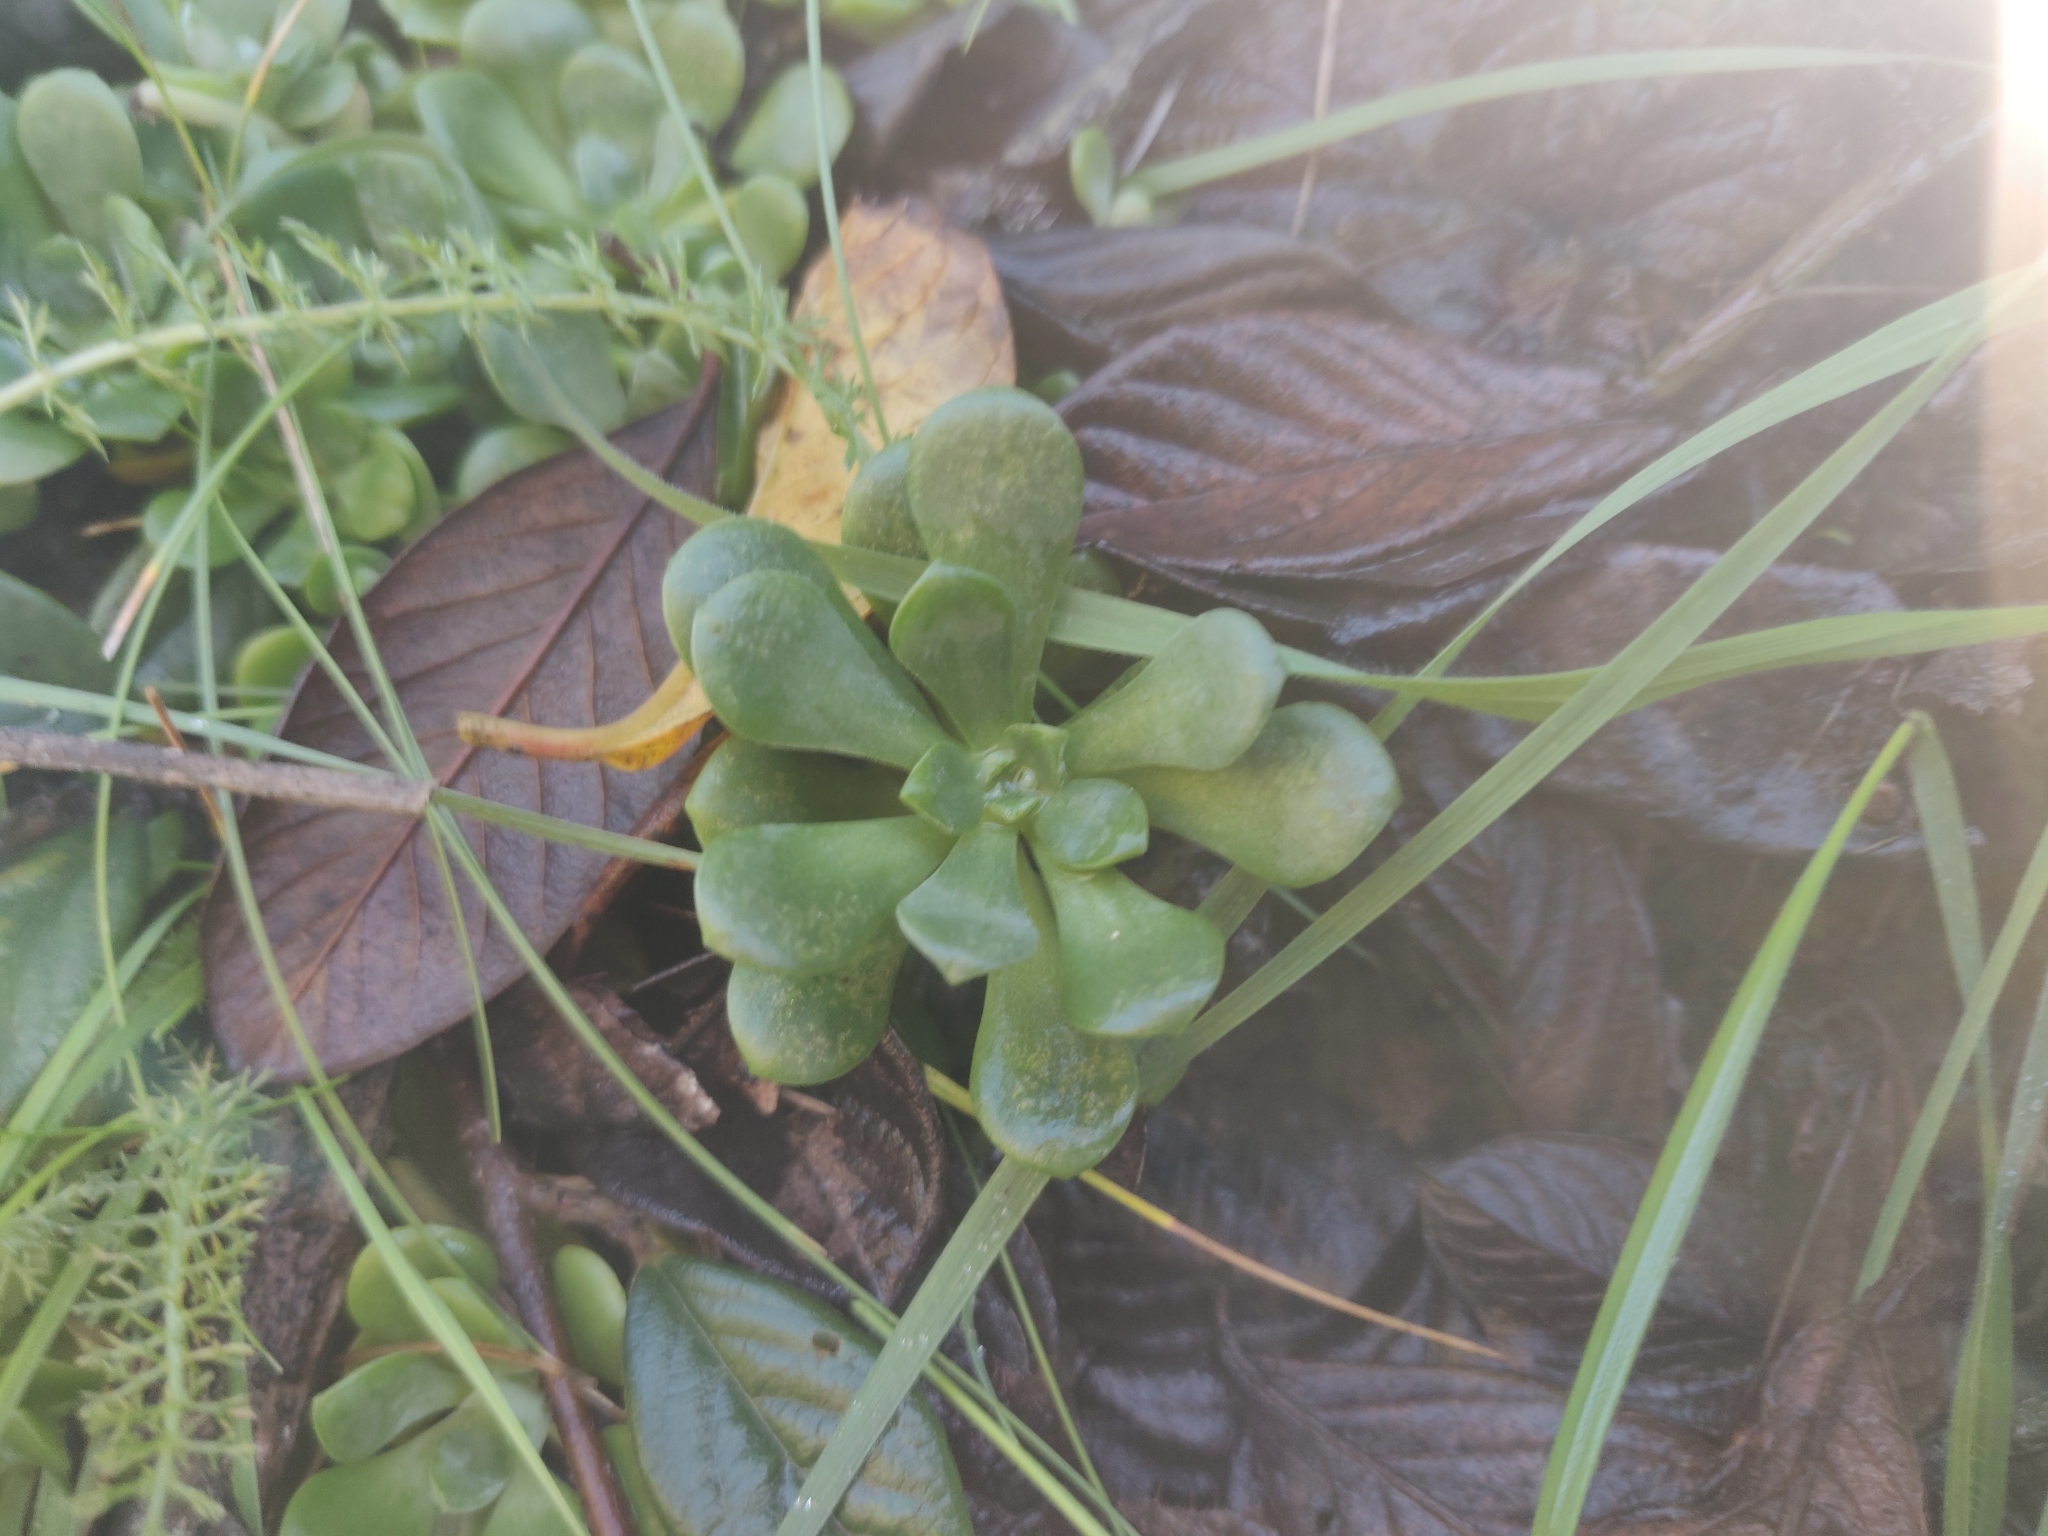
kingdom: Plantae
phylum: Tracheophyta
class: Magnoliopsida
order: Saxifragales
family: Crassulaceae
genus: Sedum
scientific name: Sedum spathulifolium
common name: Colorado stonecrop
